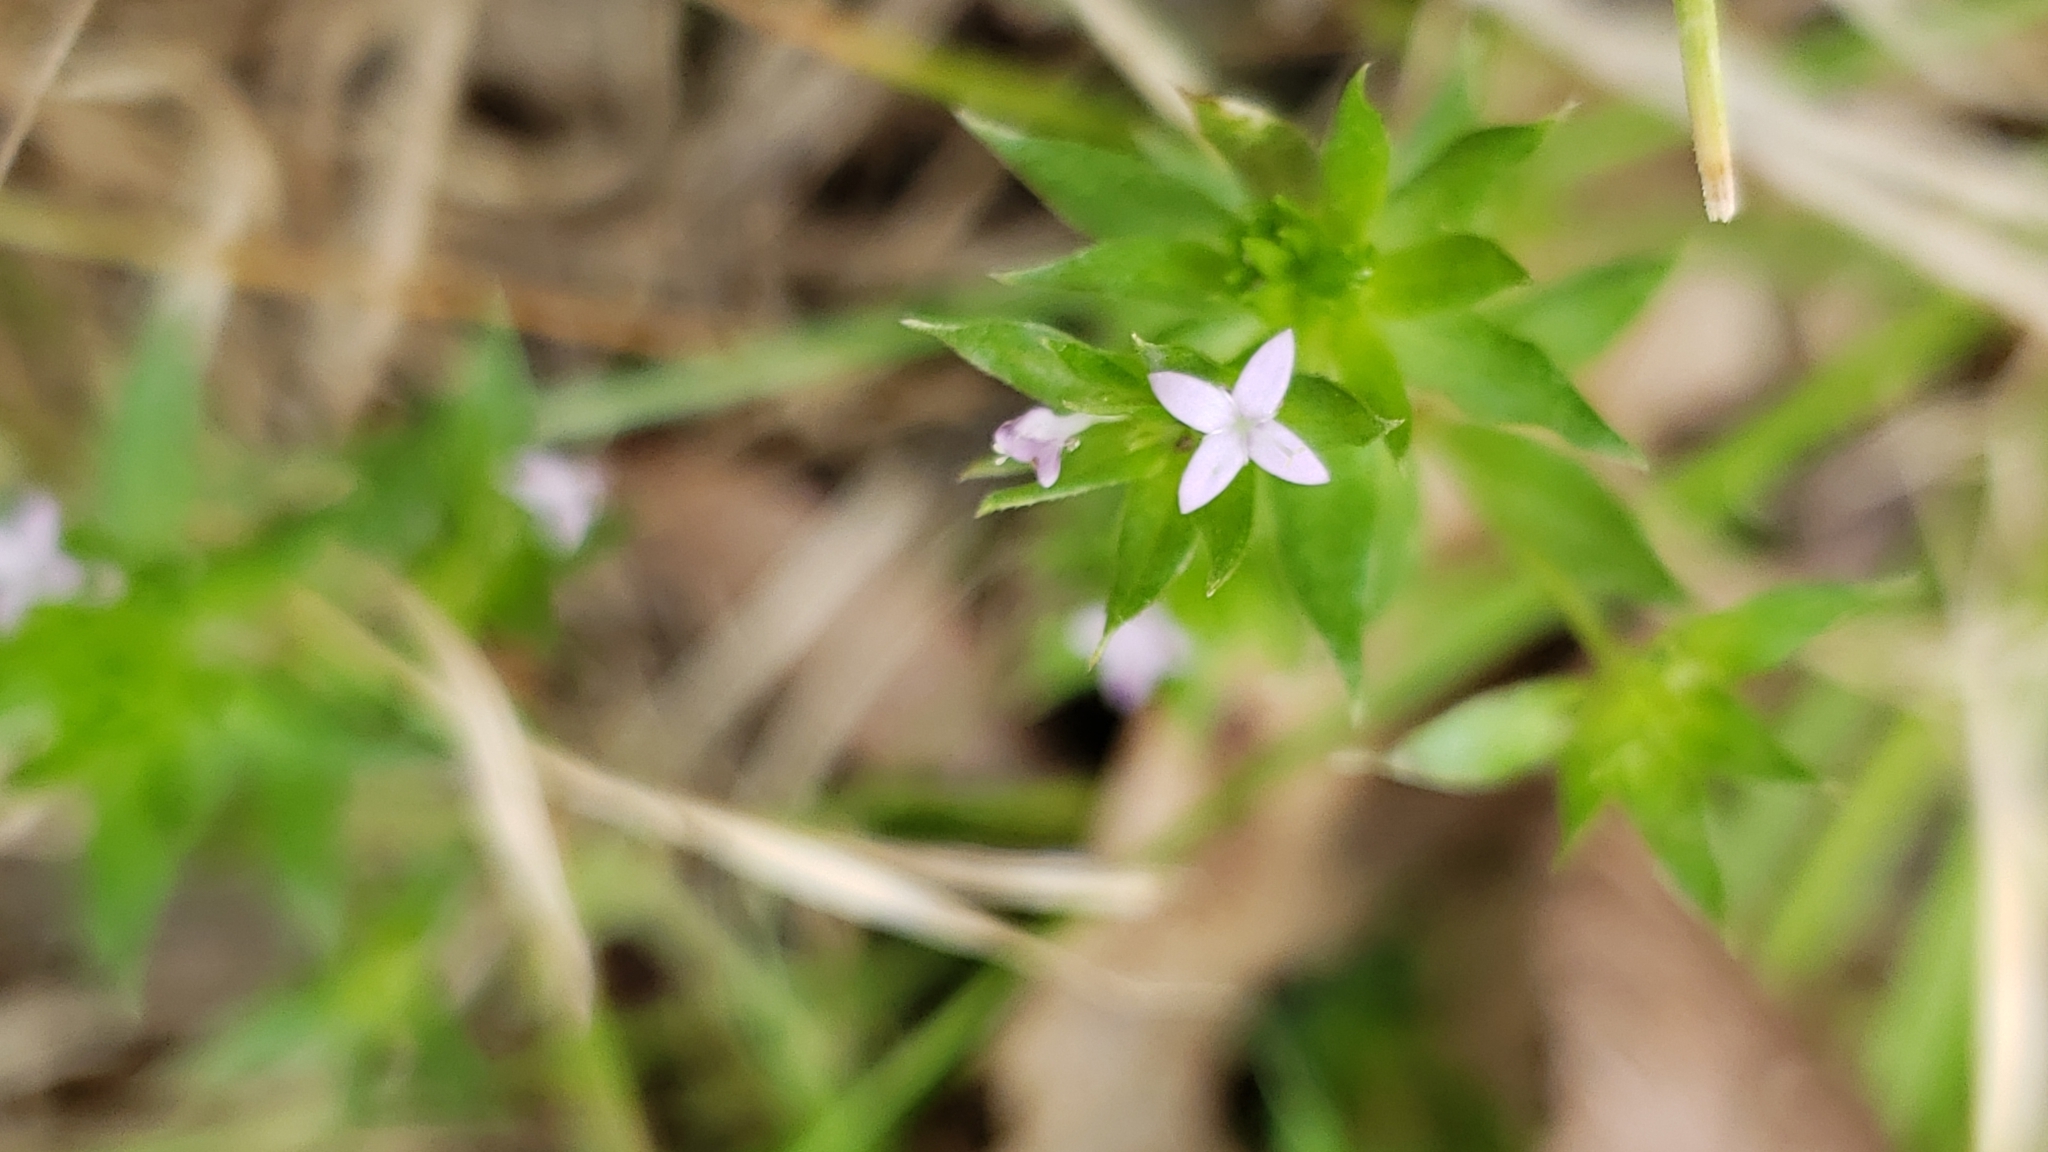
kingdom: Plantae
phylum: Tracheophyta
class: Magnoliopsida
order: Gentianales
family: Rubiaceae
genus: Sherardia
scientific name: Sherardia arvensis
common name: Field madder
